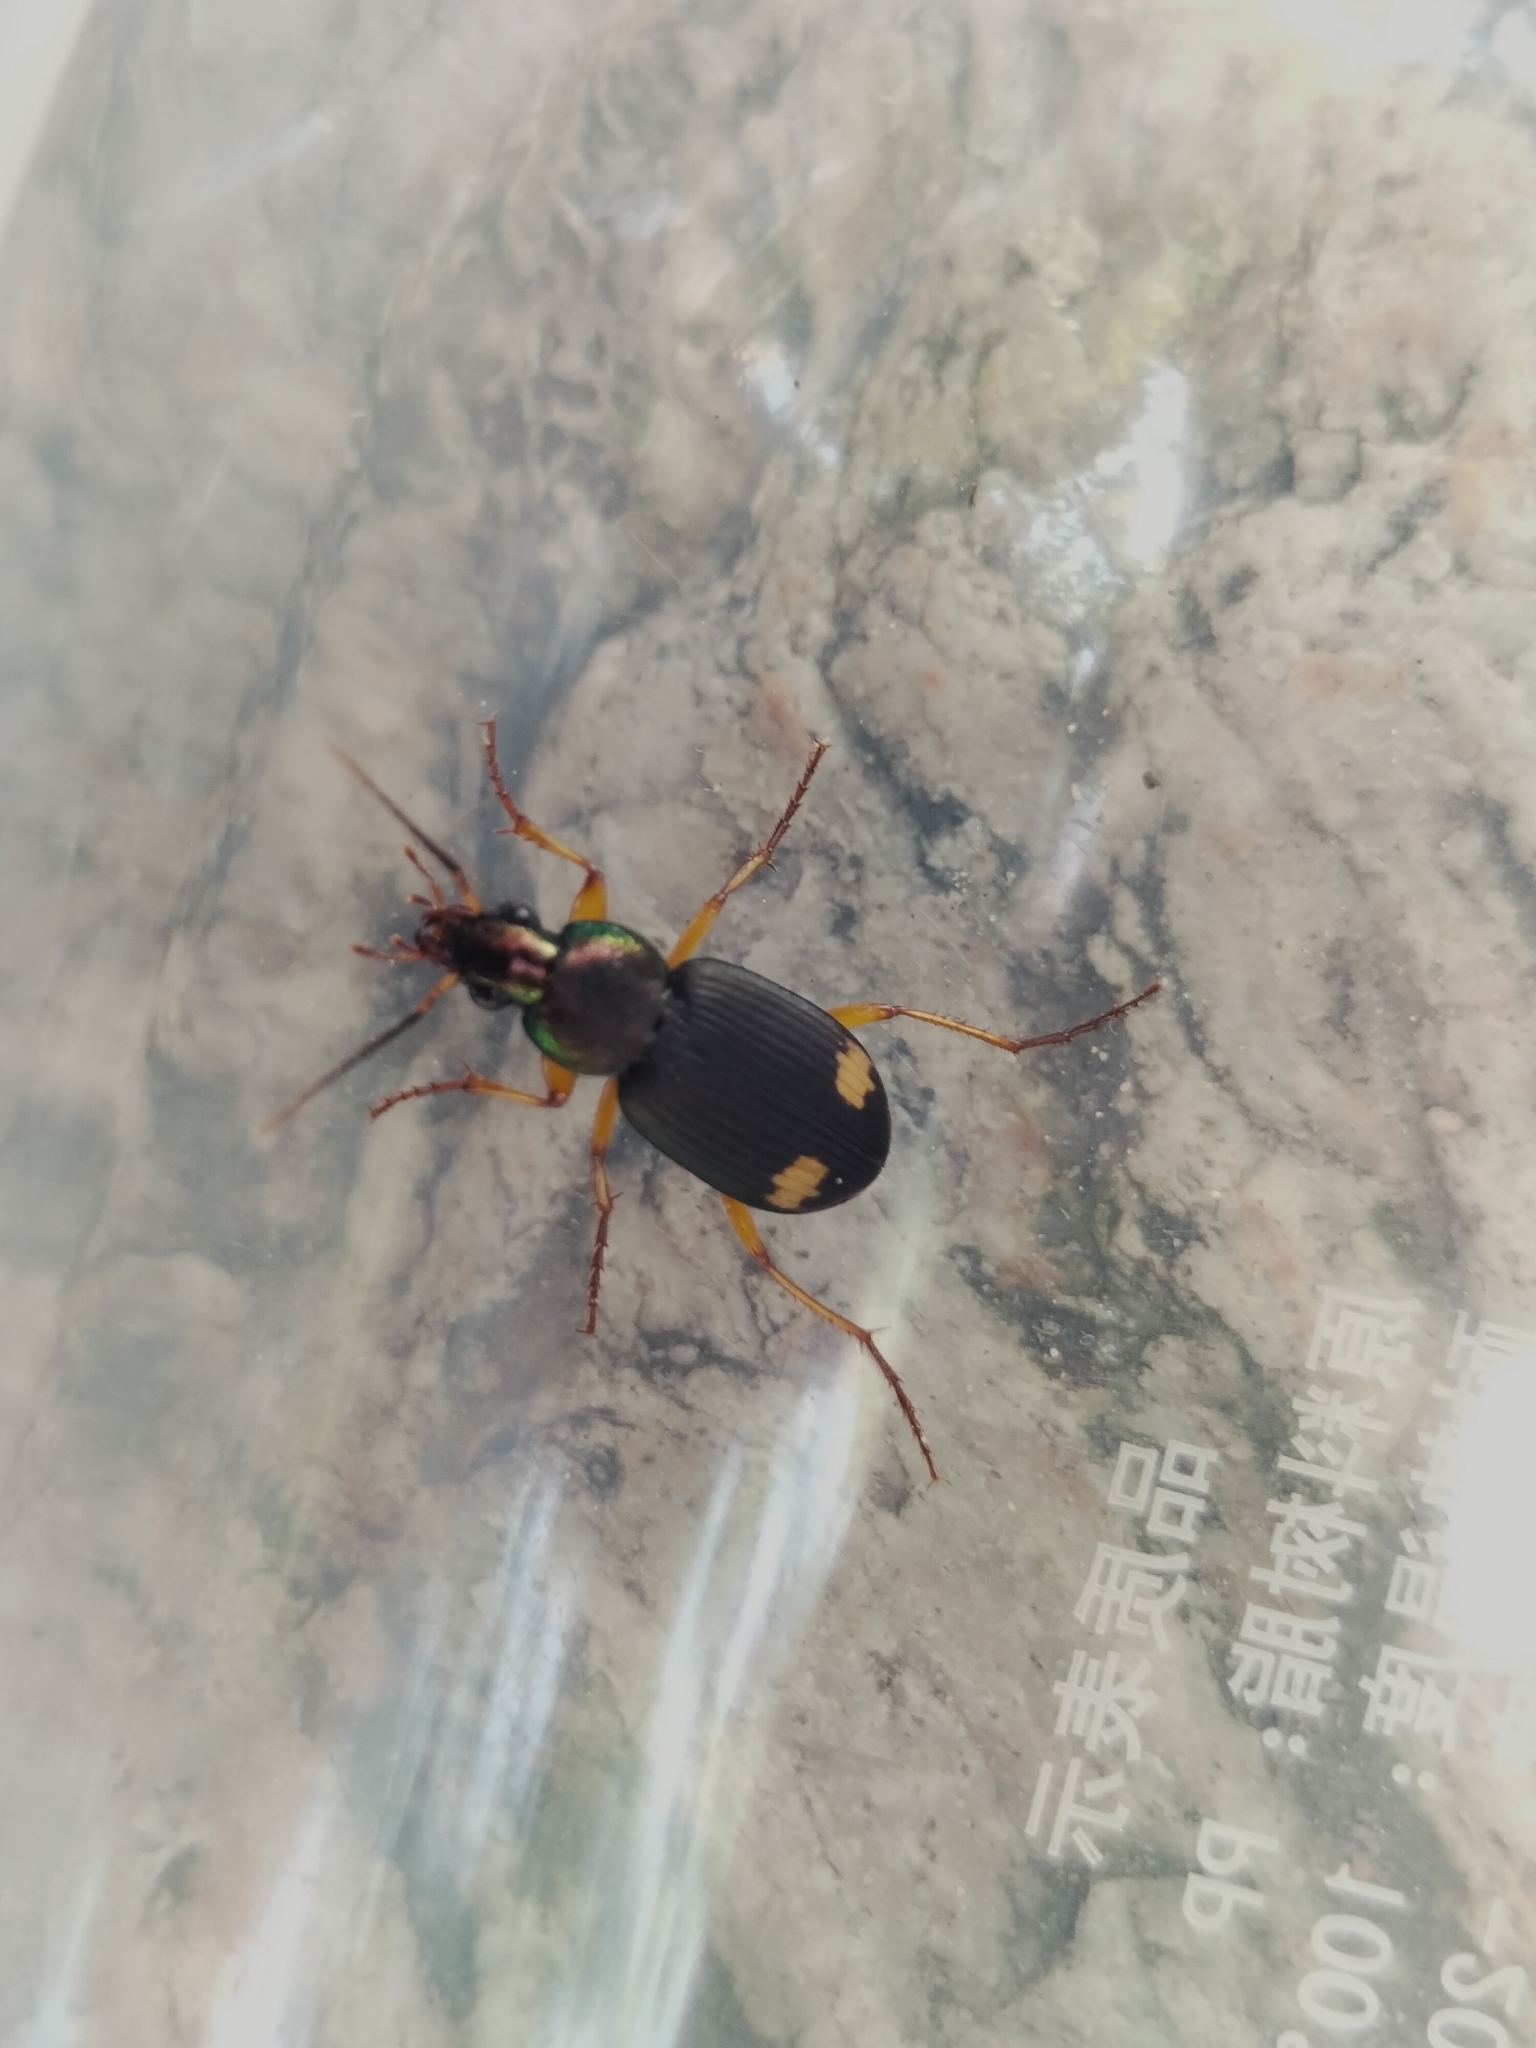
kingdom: Animalia
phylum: Arthropoda
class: Insecta
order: Coleoptera
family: Carabidae
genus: Chlaenius
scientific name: Chlaenius bioculatus
